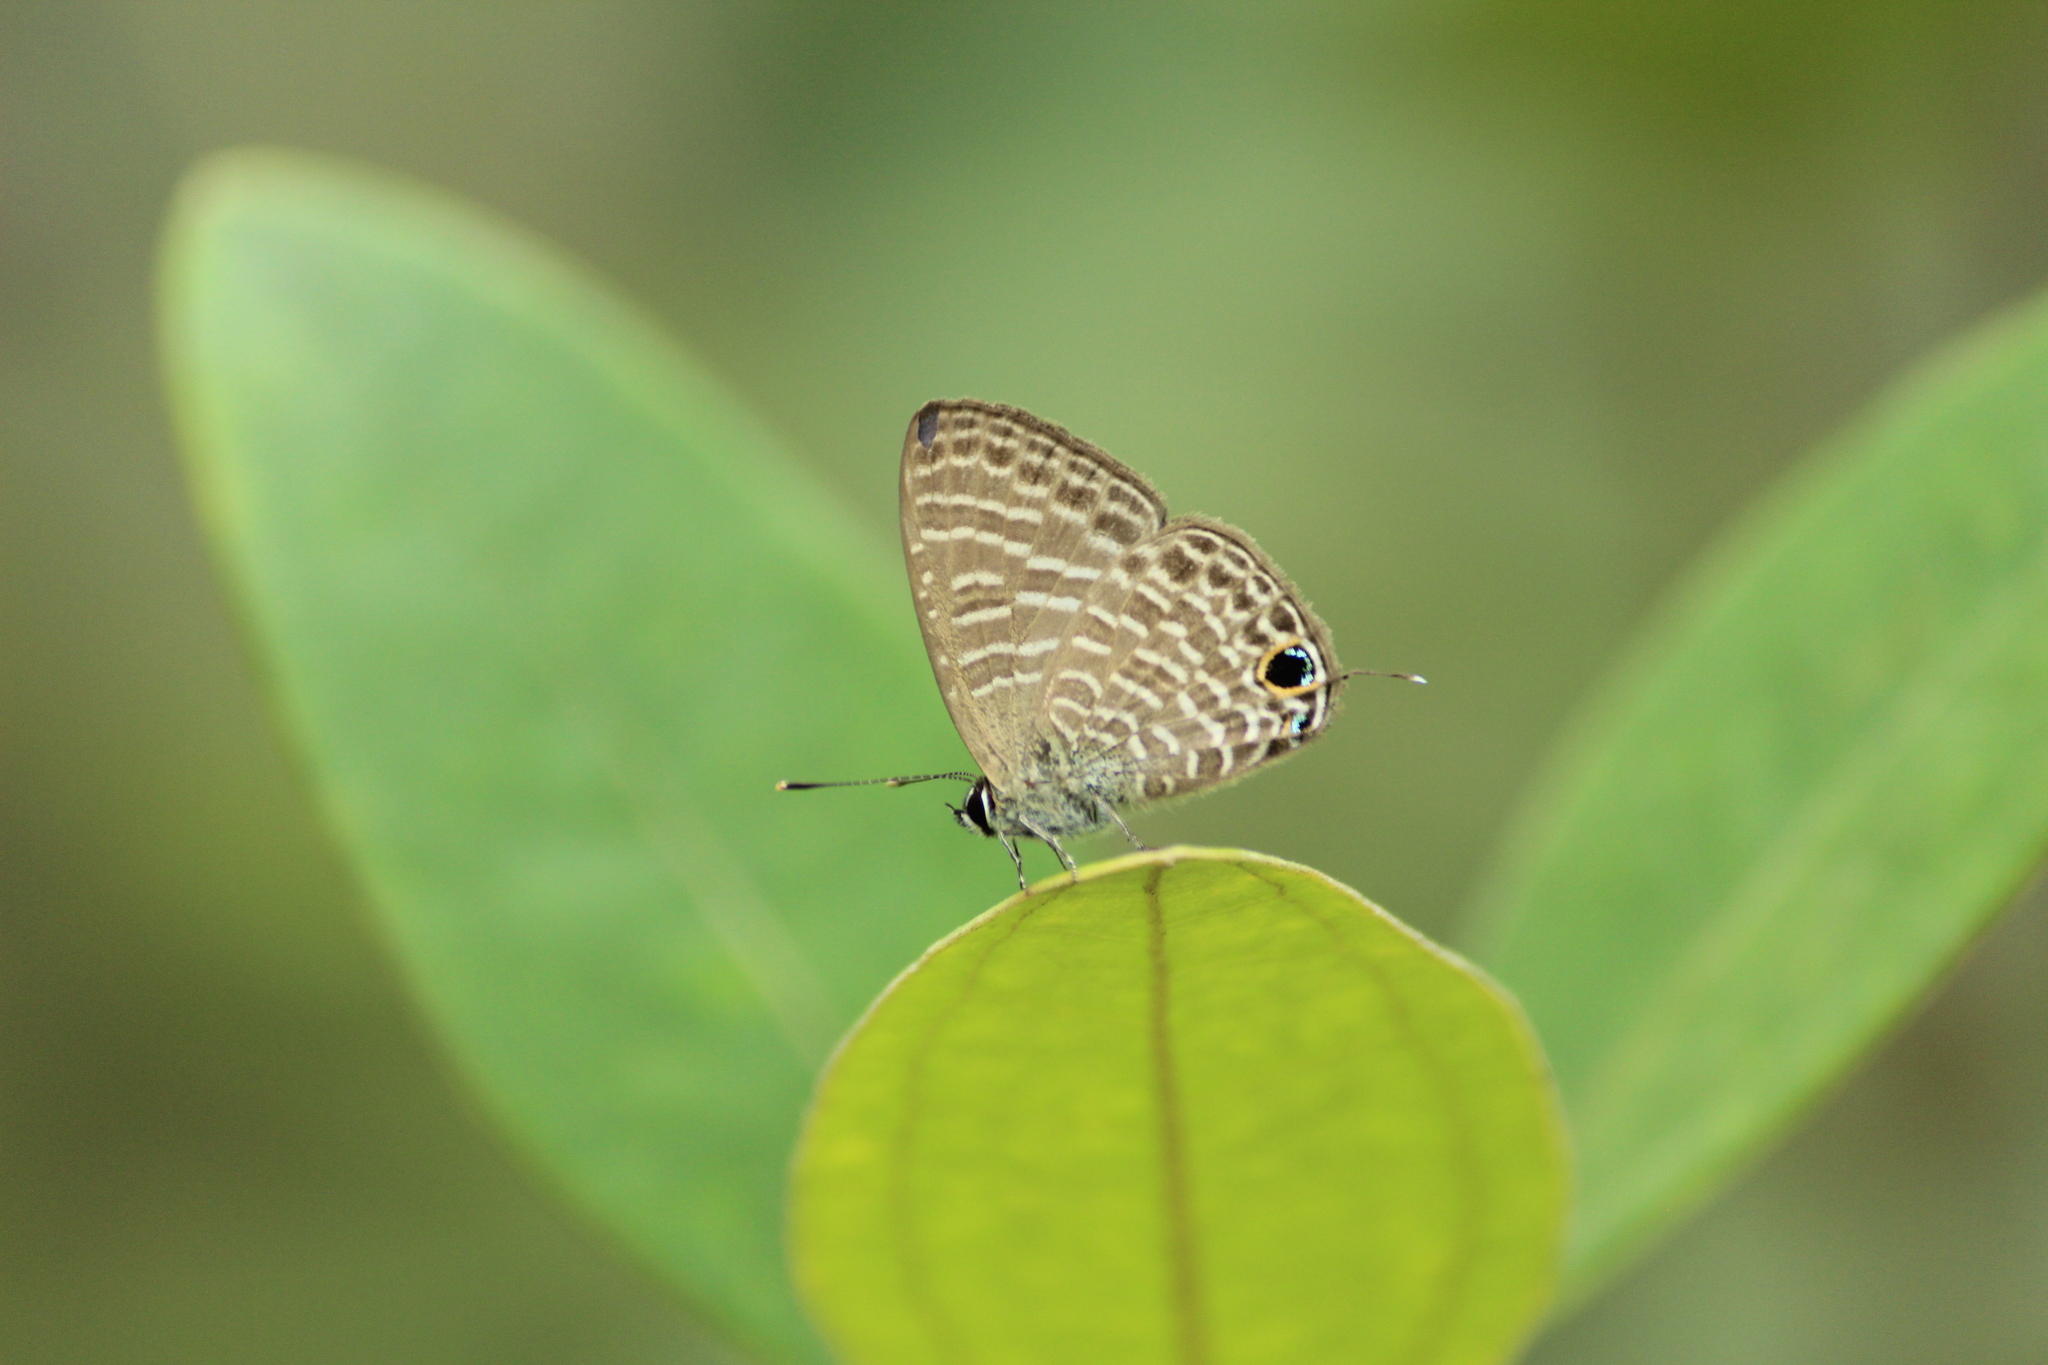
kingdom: Animalia
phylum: Arthropoda
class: Insecta
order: Lepidoptera
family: Lycaenidae
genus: Nacaduba
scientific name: Nacaduba kurava
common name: Transparent 6-line blue
